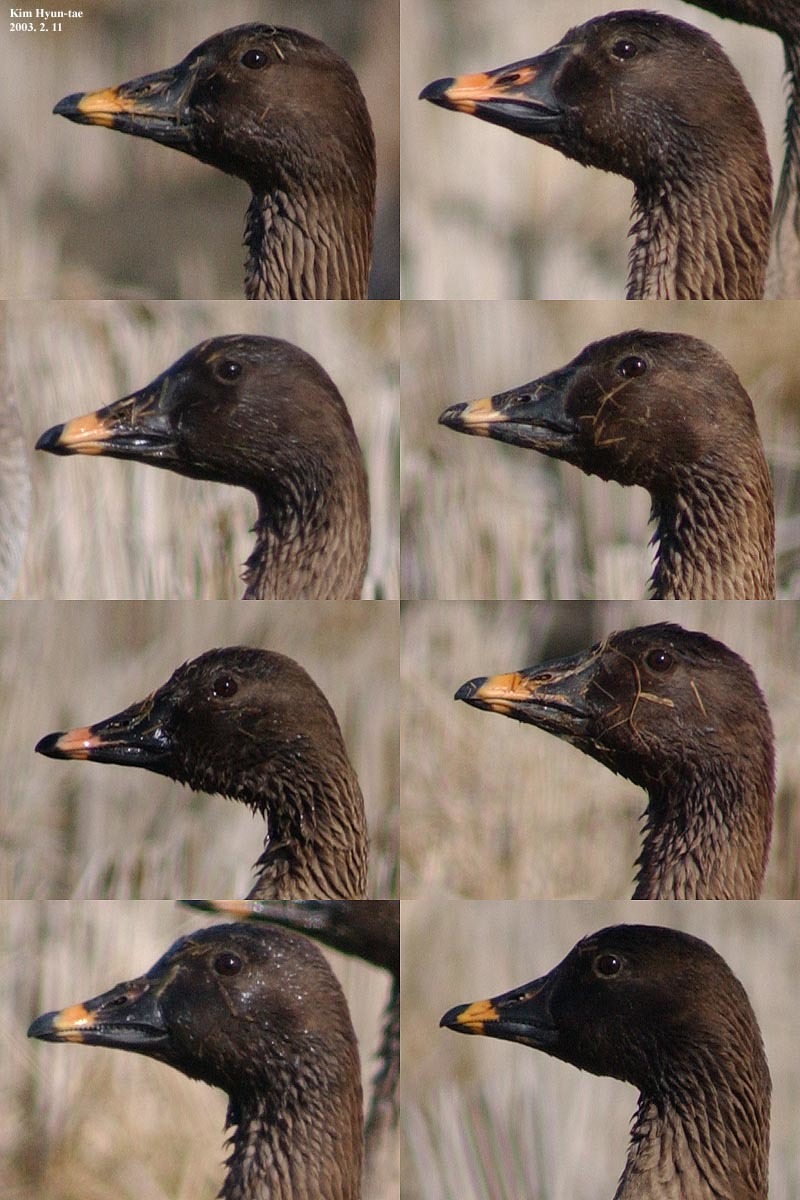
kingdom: Animalia
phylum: Chordata
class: Aves
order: Anseriformes
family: Anatidae
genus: Anser
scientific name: Anser fabalis
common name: Bean goose
